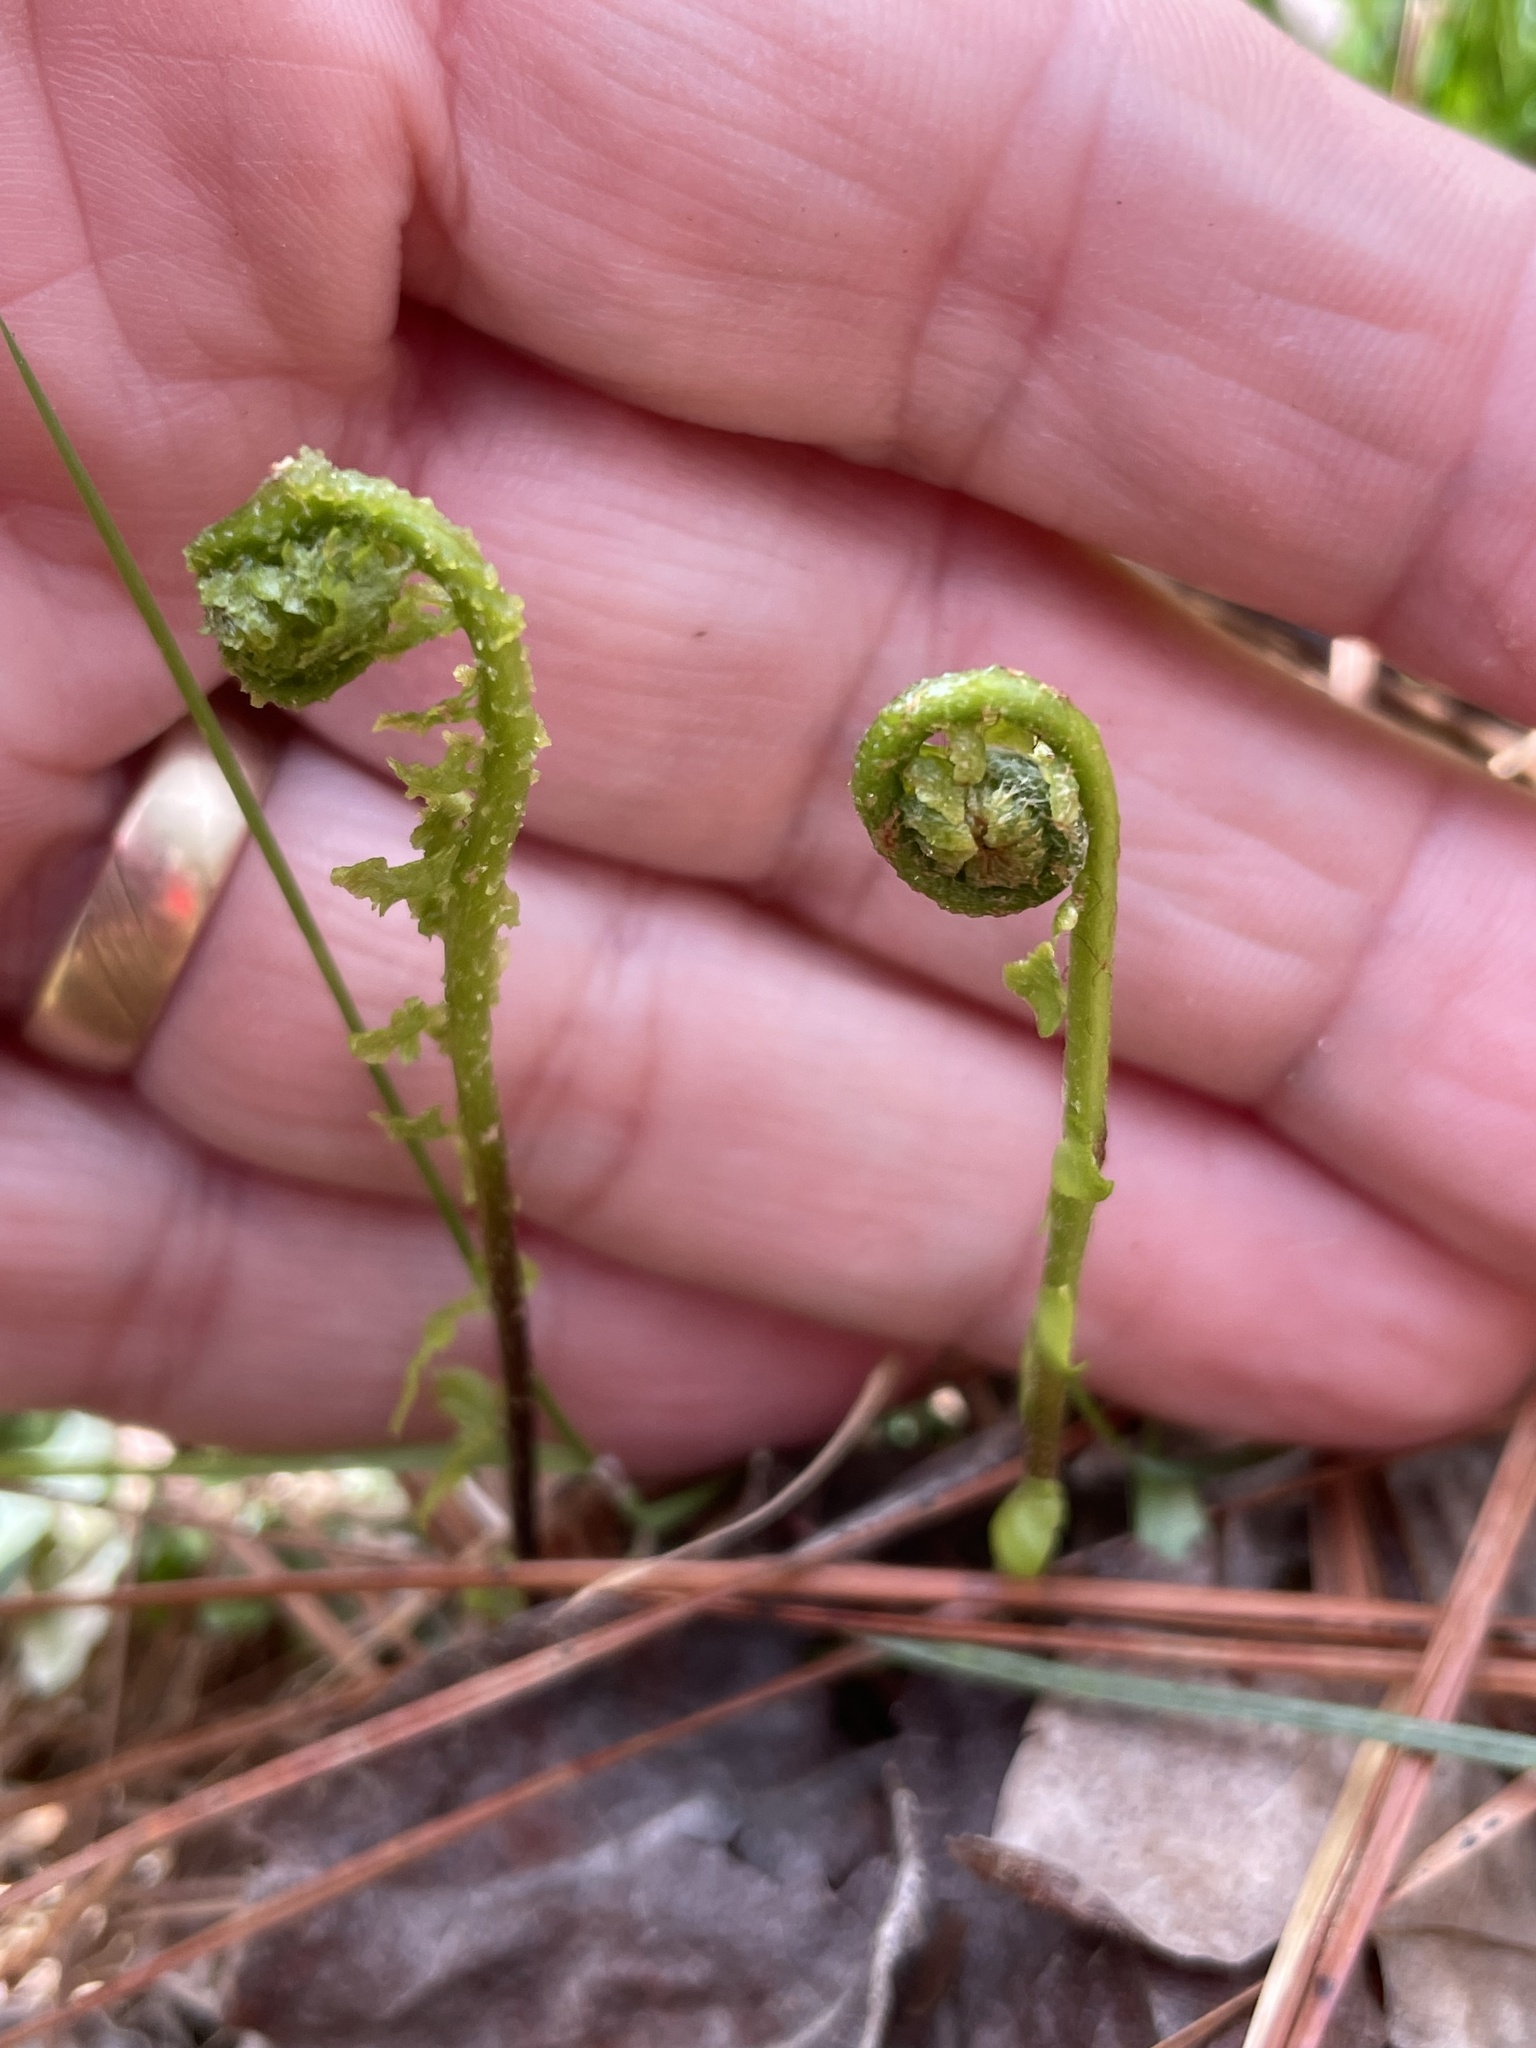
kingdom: Plantae
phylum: Tracheophyta
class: Polypodiopsida
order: Polypodiales
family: Aspleniaceae
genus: Asplenium
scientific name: Asplenium platyneuron
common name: Ebony spleenwort
